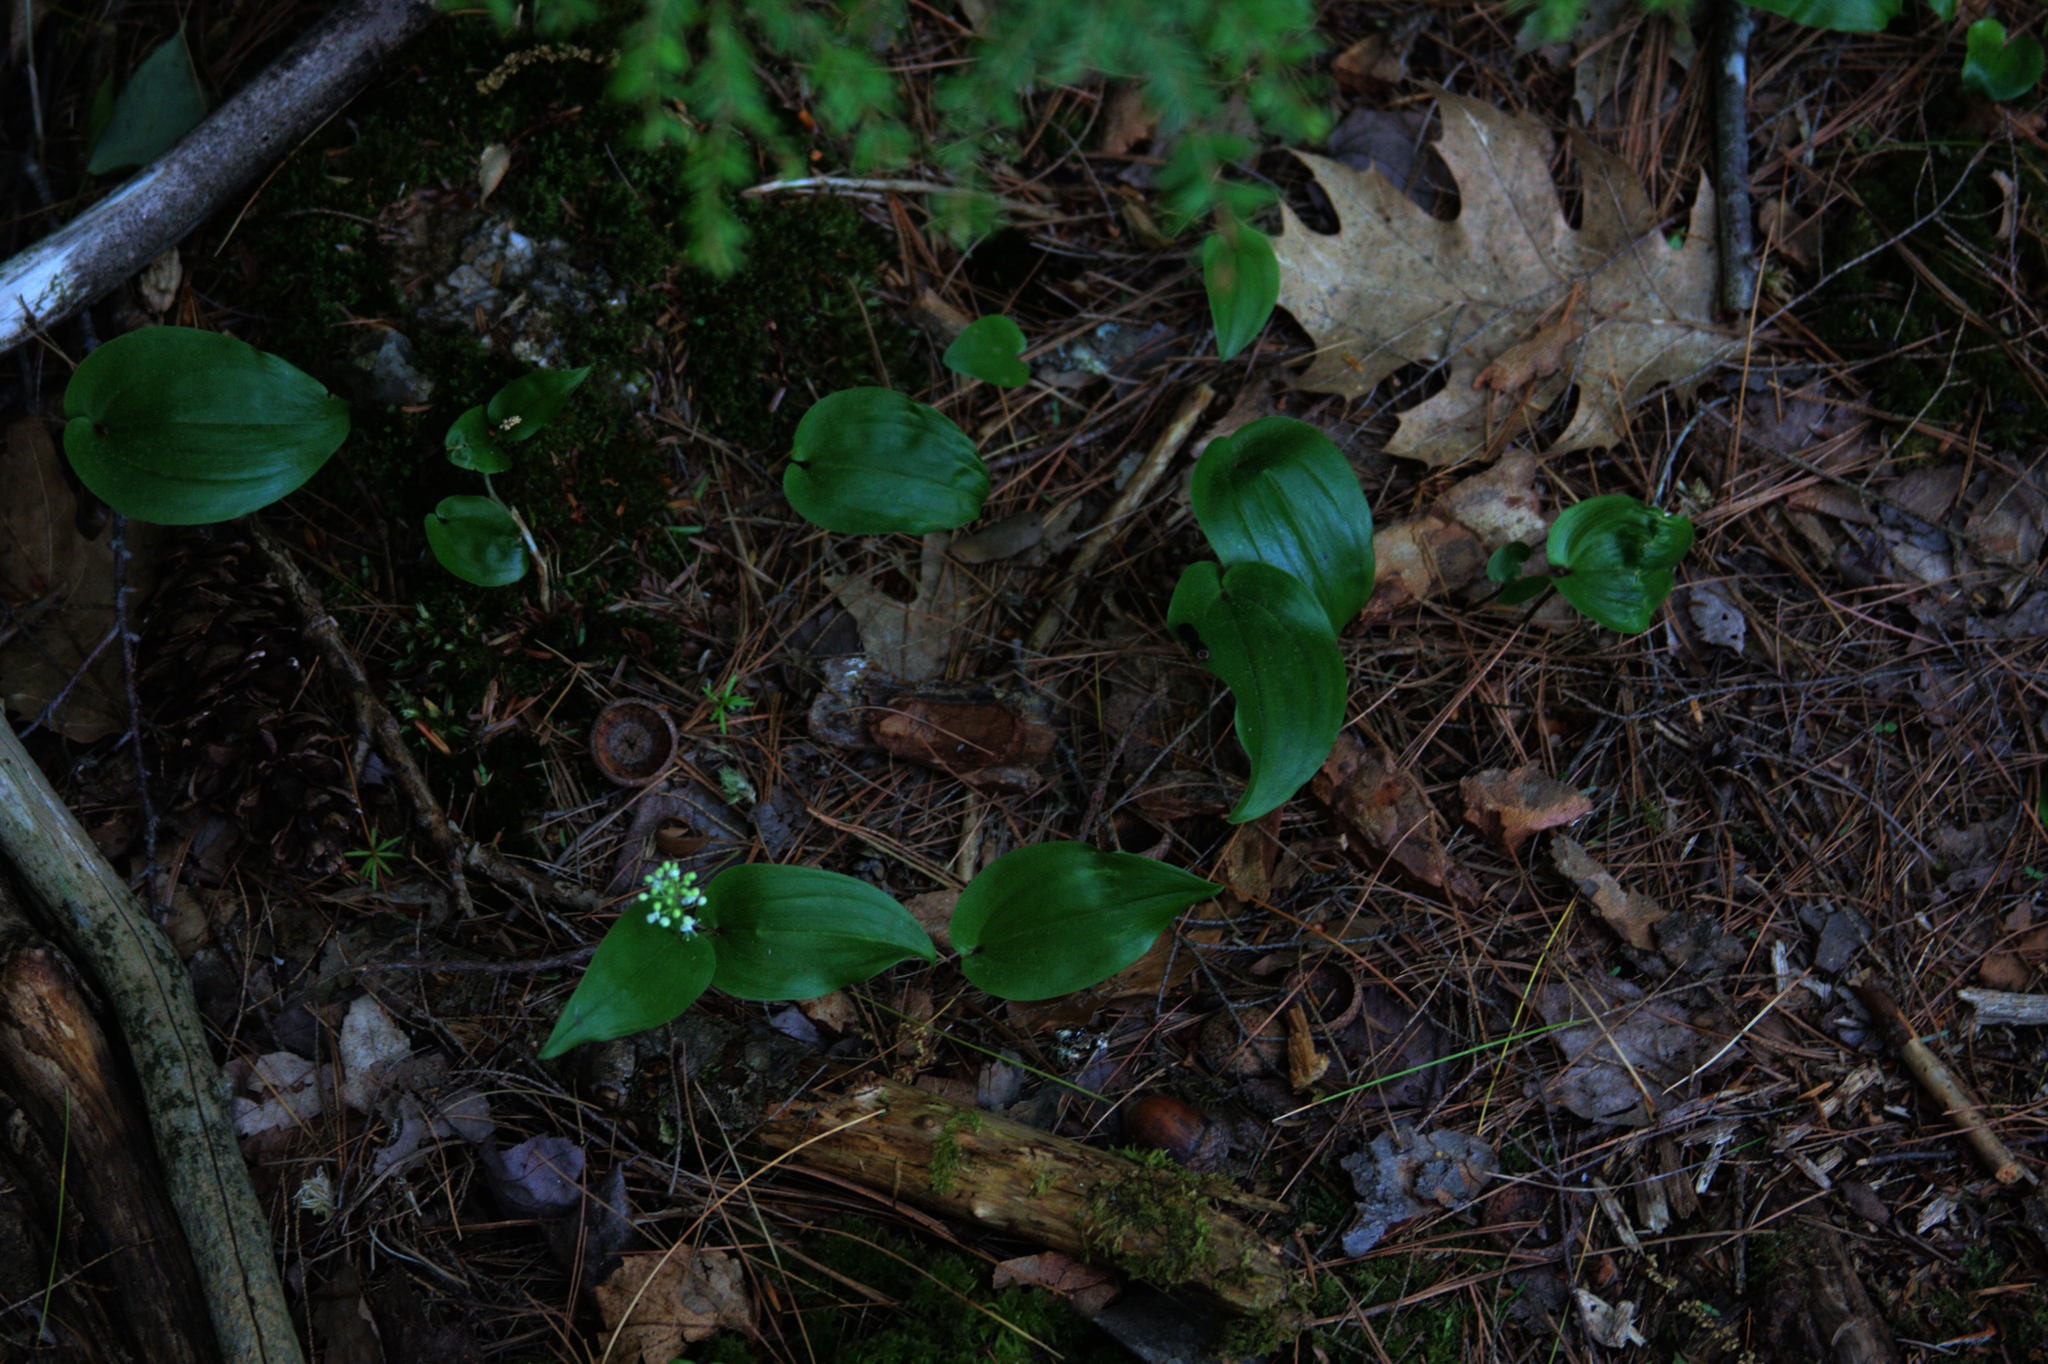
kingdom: Plantae
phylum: Tracheophyta
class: Liliopsida
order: Asparagales
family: Asparagaceae
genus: Maianthemum
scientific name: Maianthemum canadense
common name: False lily-of-the-valley
